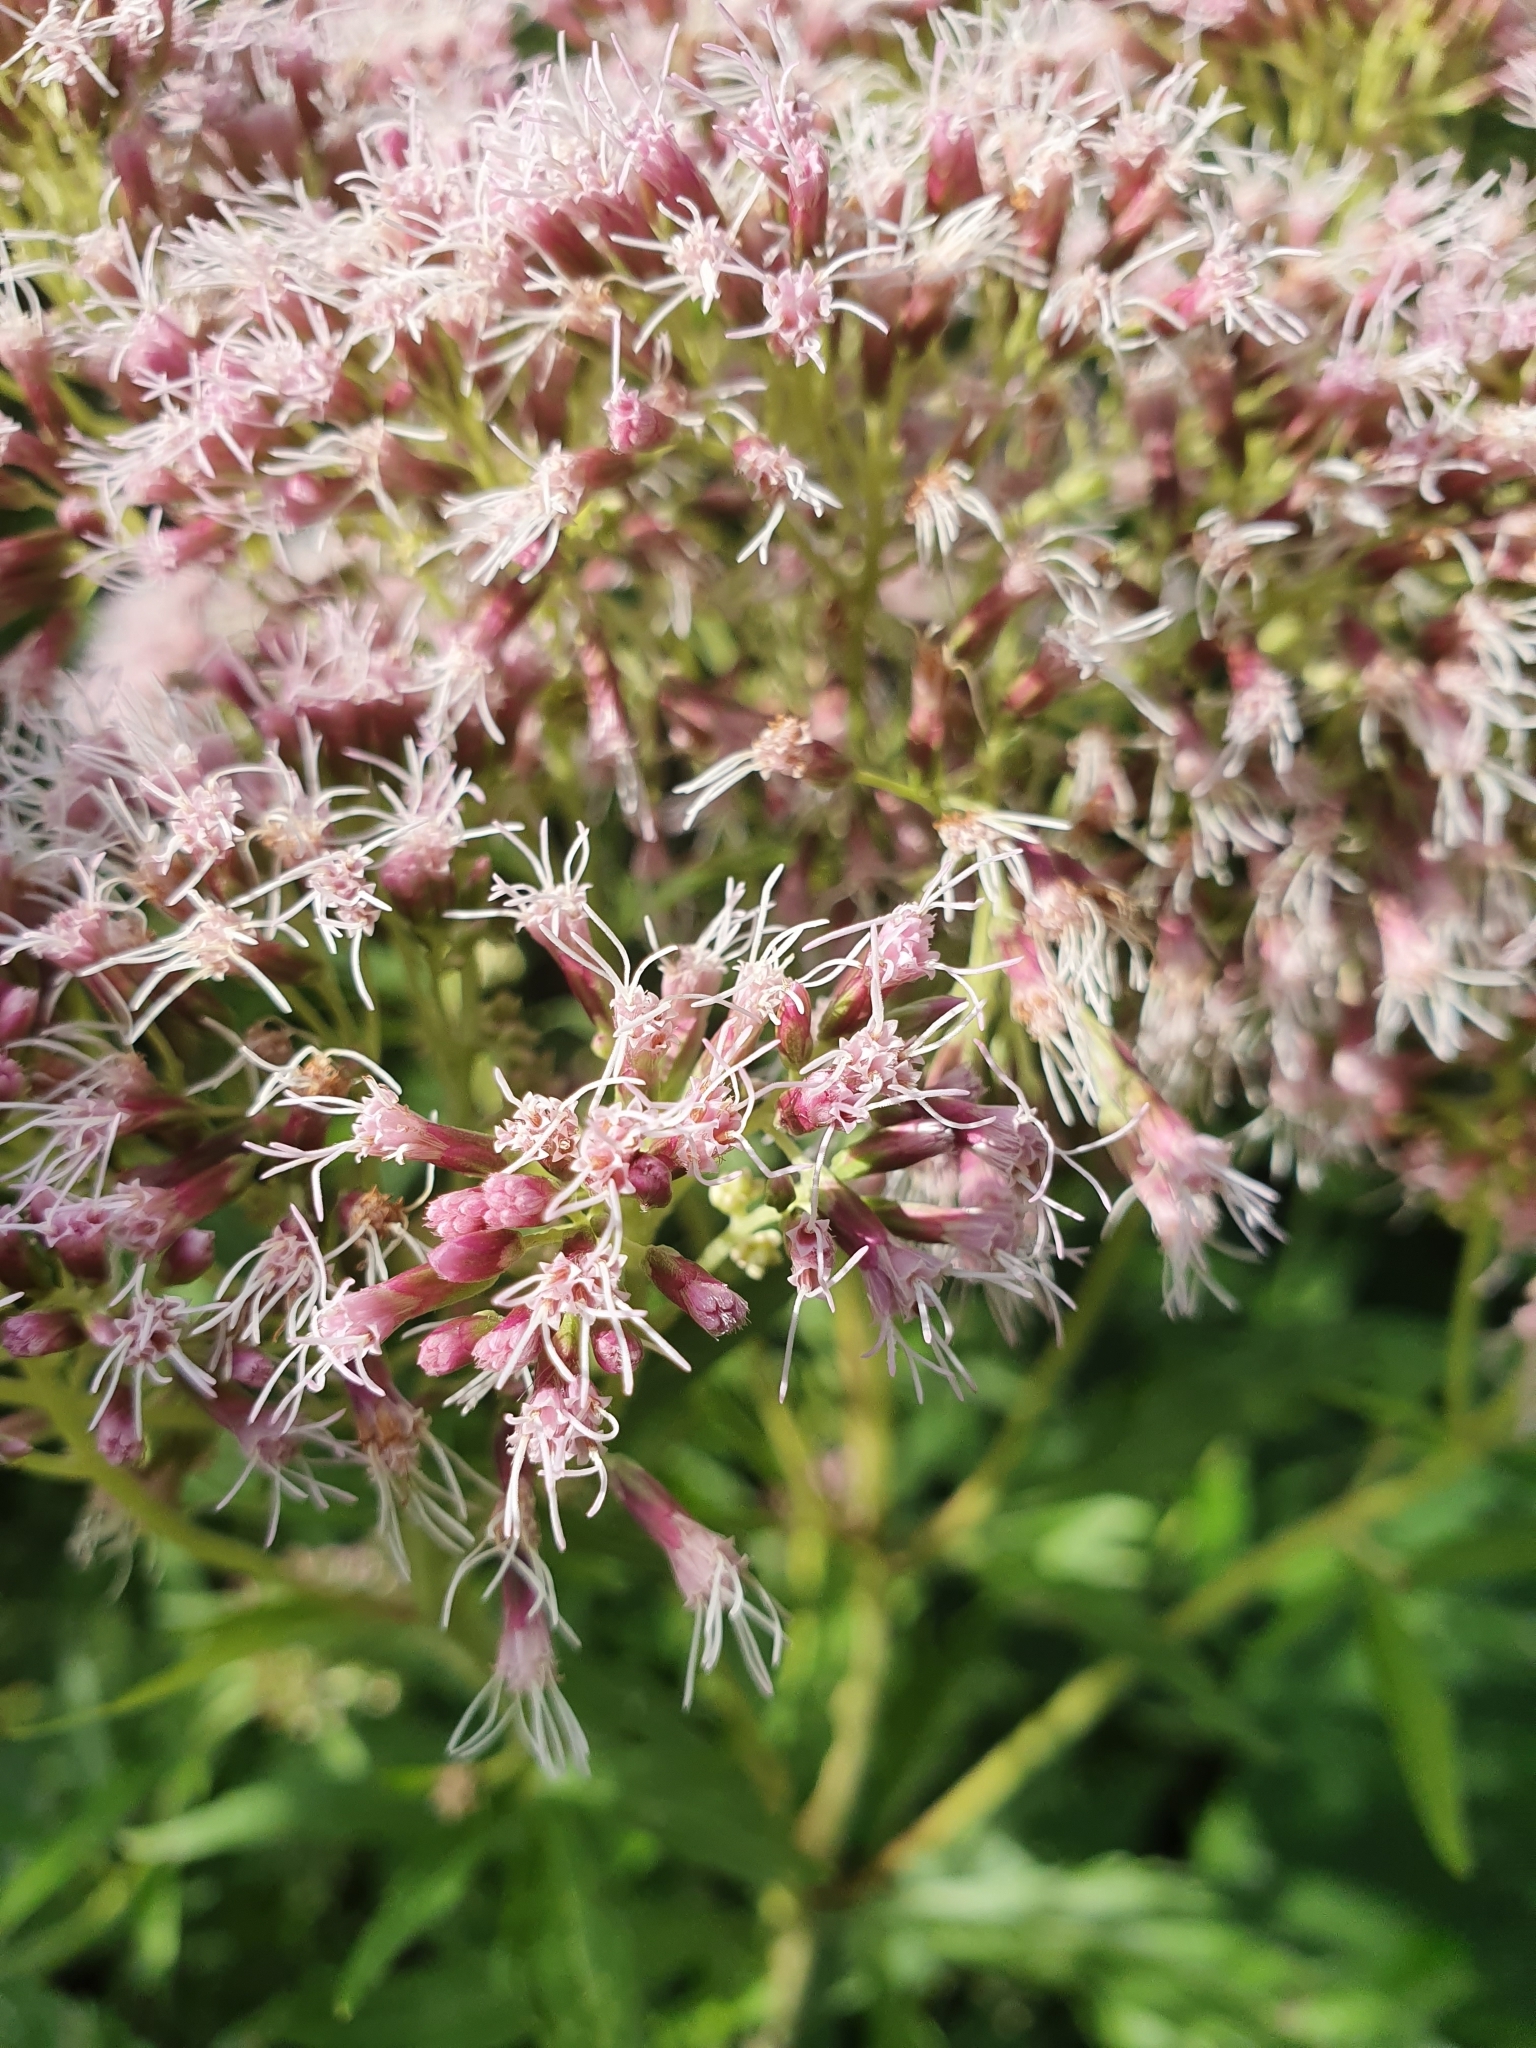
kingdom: Plantae
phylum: Tracheophyta
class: Magnoliopsida
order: Asterales
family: Asteraceae
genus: Eupatorium
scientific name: Eupatorium cannabinum
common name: Hemp-agrimony
